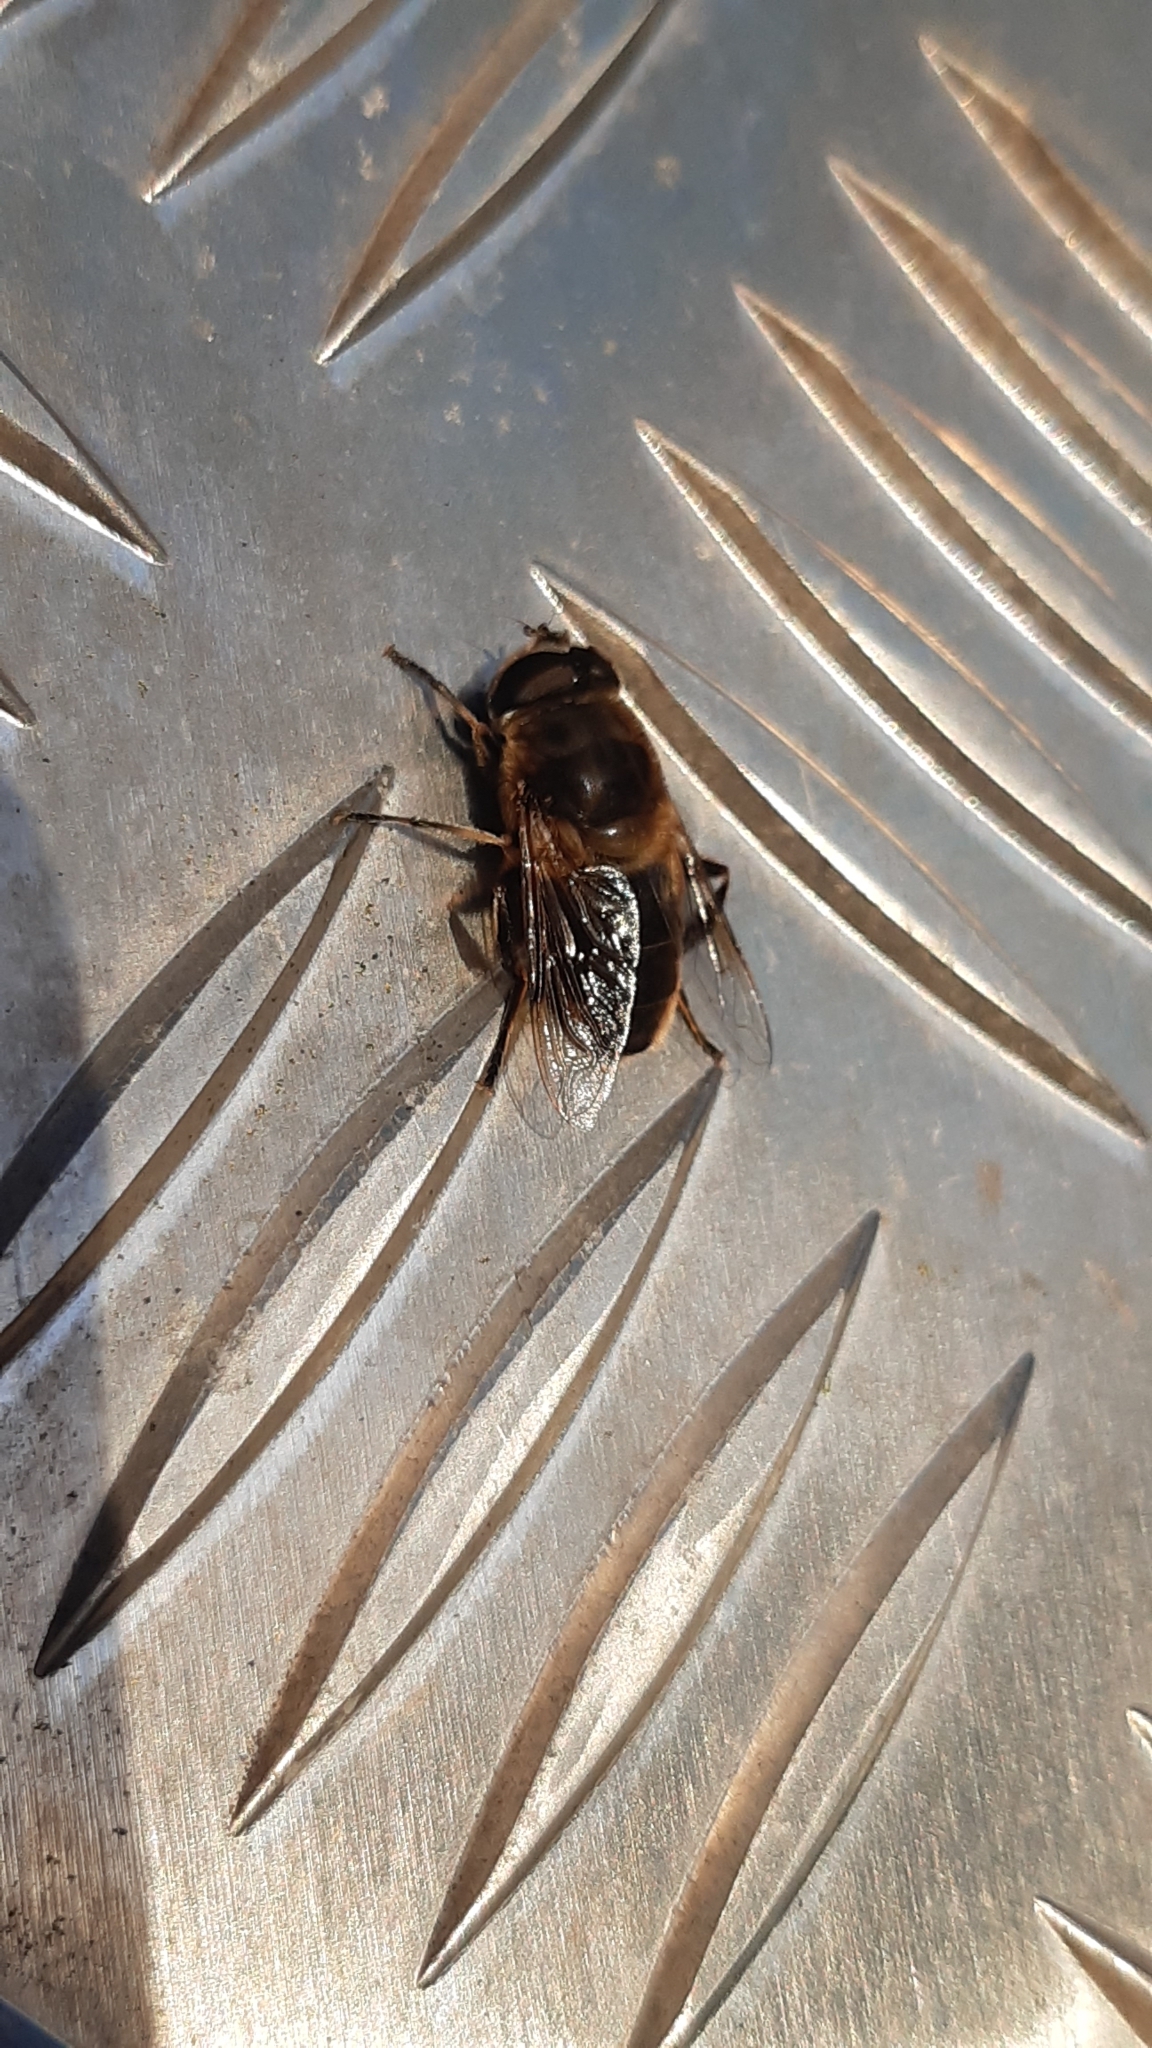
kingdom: Animalia
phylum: Arthropoda
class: Insecta
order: Diptera
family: Syrphidae
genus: Eristalis
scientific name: Eristalis tenax
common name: Drone fly
